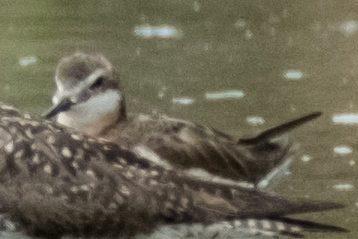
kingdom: Animalia
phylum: Chordata
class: Aves
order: Charadriiformes
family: Scolopacidae
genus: Phalaropus
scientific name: Phalaropus tricolor
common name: Wilson's phalarope
